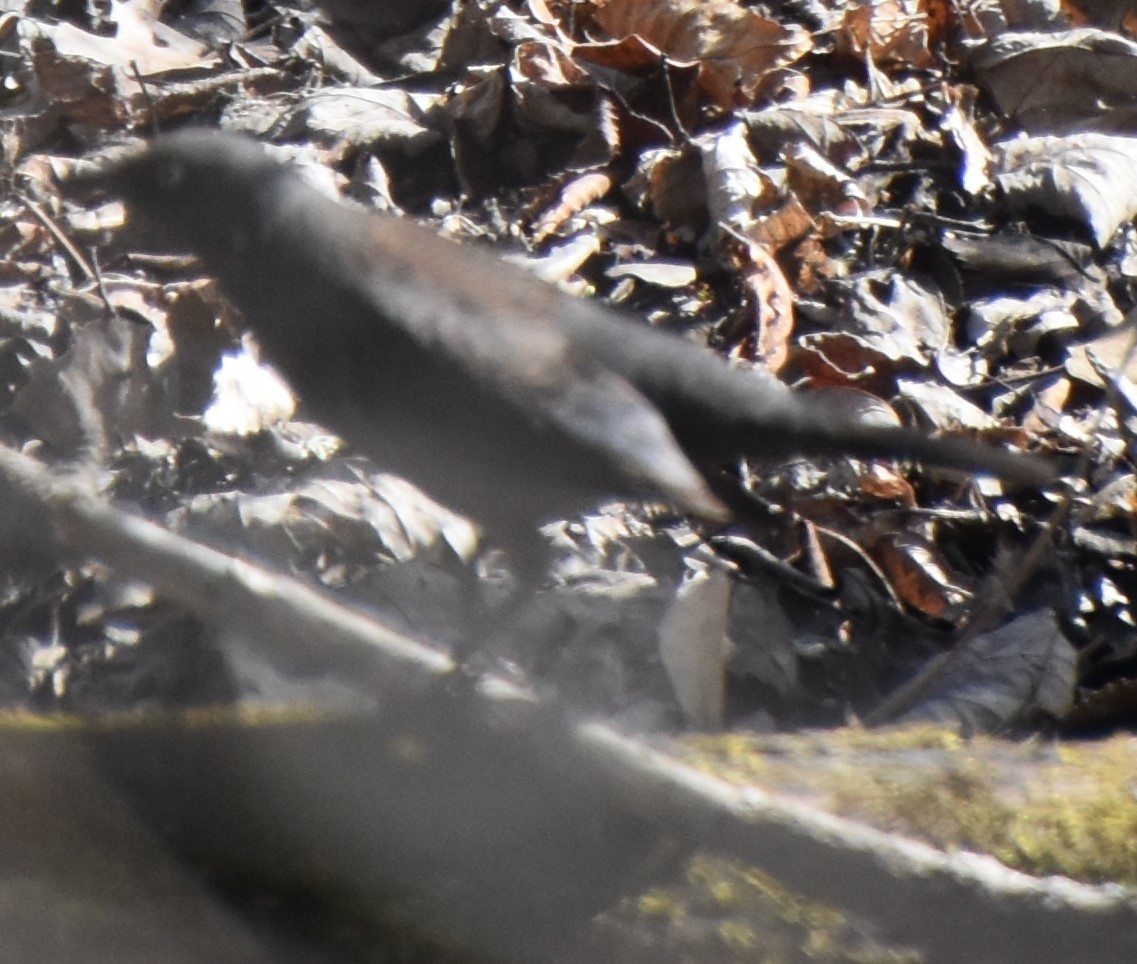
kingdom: Animalia
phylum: Chordata
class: Aves
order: Passeriformes
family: Icteridae
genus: Euphagus
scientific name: Euphagus carolinus
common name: Rusty blackbird
